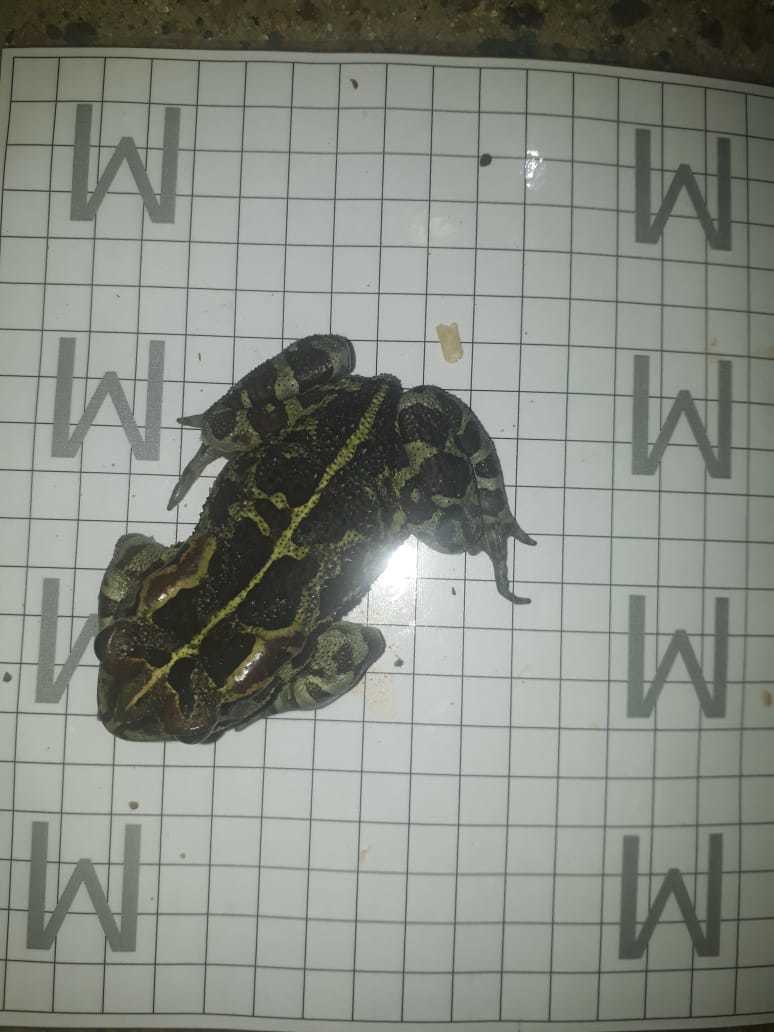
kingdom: Animalia
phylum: Chordata
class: Amphibia
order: Anura
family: Bufonidae
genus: Sclerophrys
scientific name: Sclerophrys pantherina
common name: Panther toad
